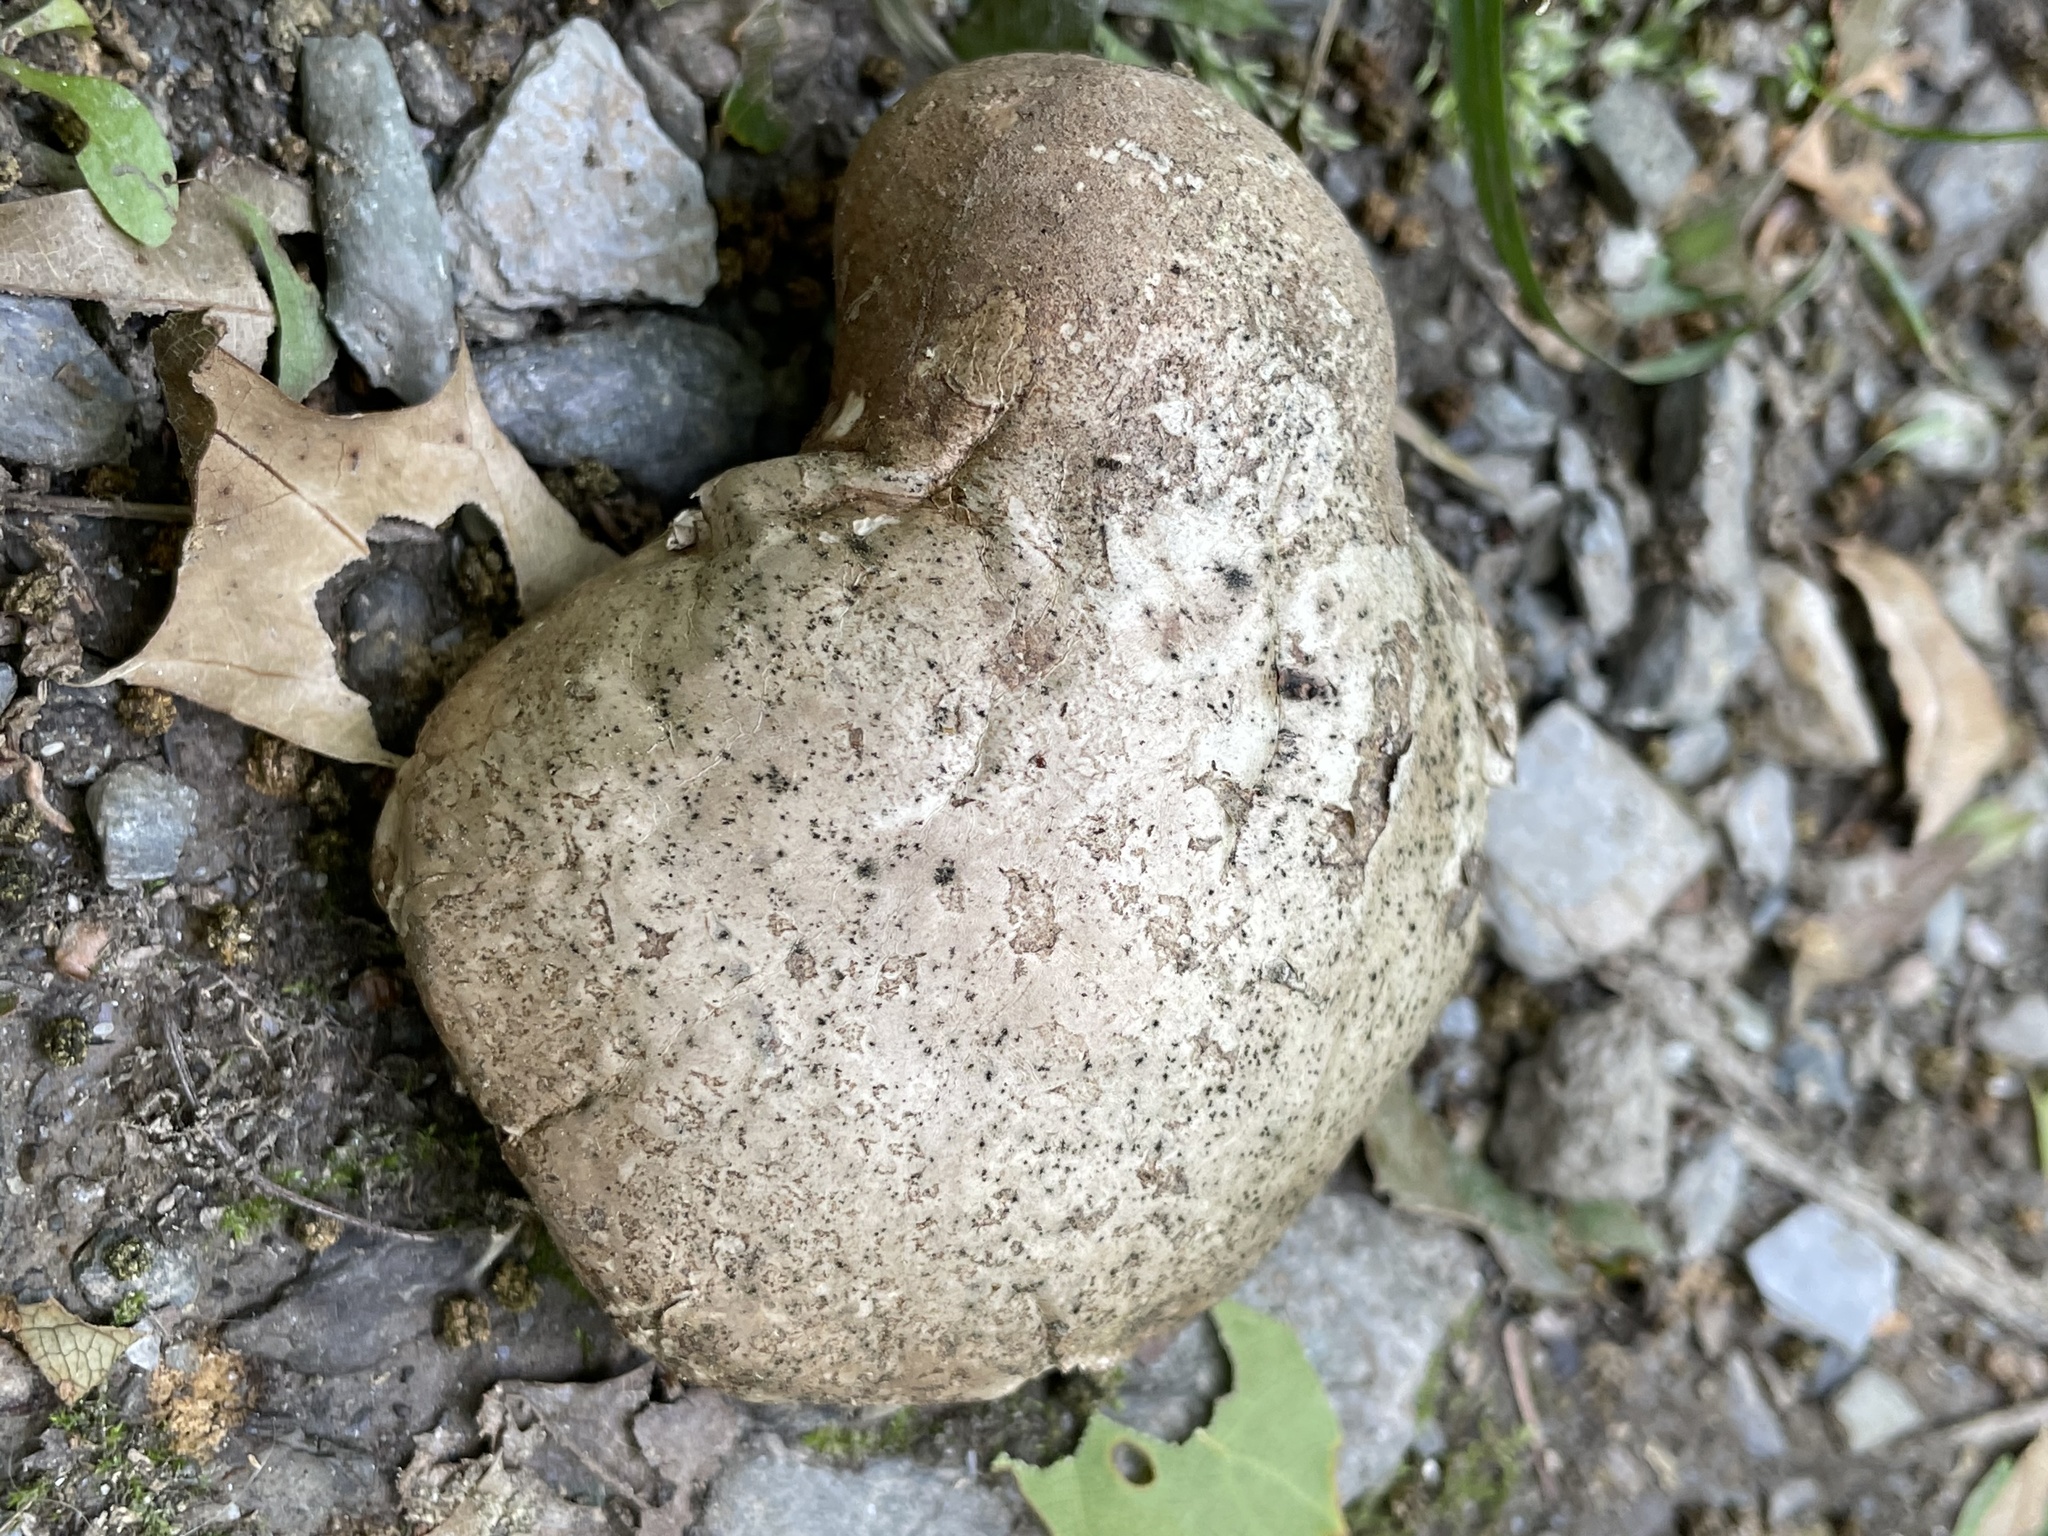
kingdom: Fungi
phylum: Basidiomycota
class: Agaricomycetes
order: Polyporales
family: Fomitopsidaceae
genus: Fomitopsis
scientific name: Fomitopsis betulina
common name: Birch polypore
